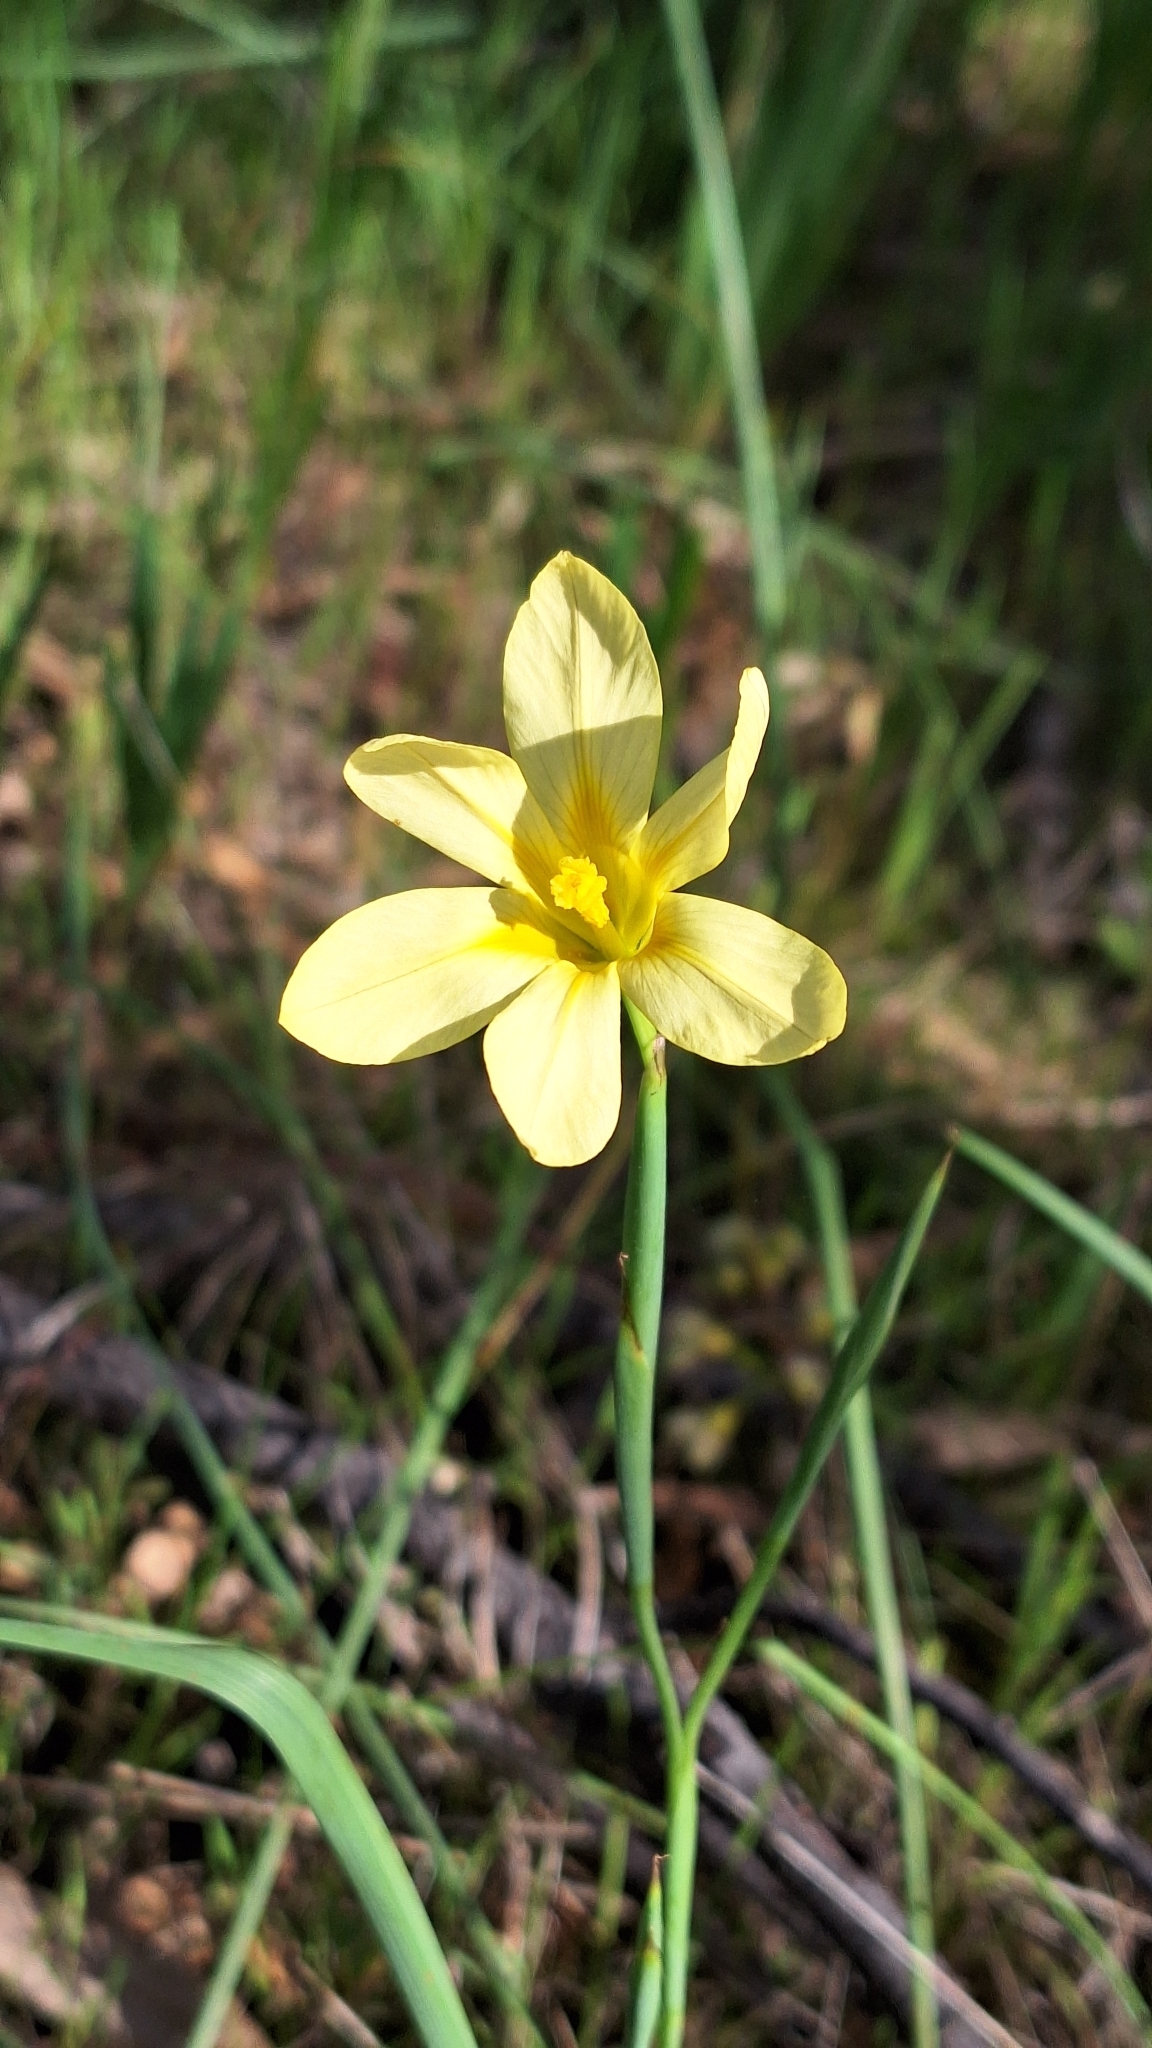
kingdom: Plantae
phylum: Tracheophyta
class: Liliopsida
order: Asparagales
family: Iridaceae
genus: Moraea
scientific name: Moraea flaccida
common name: One-leaf cape-tulip
